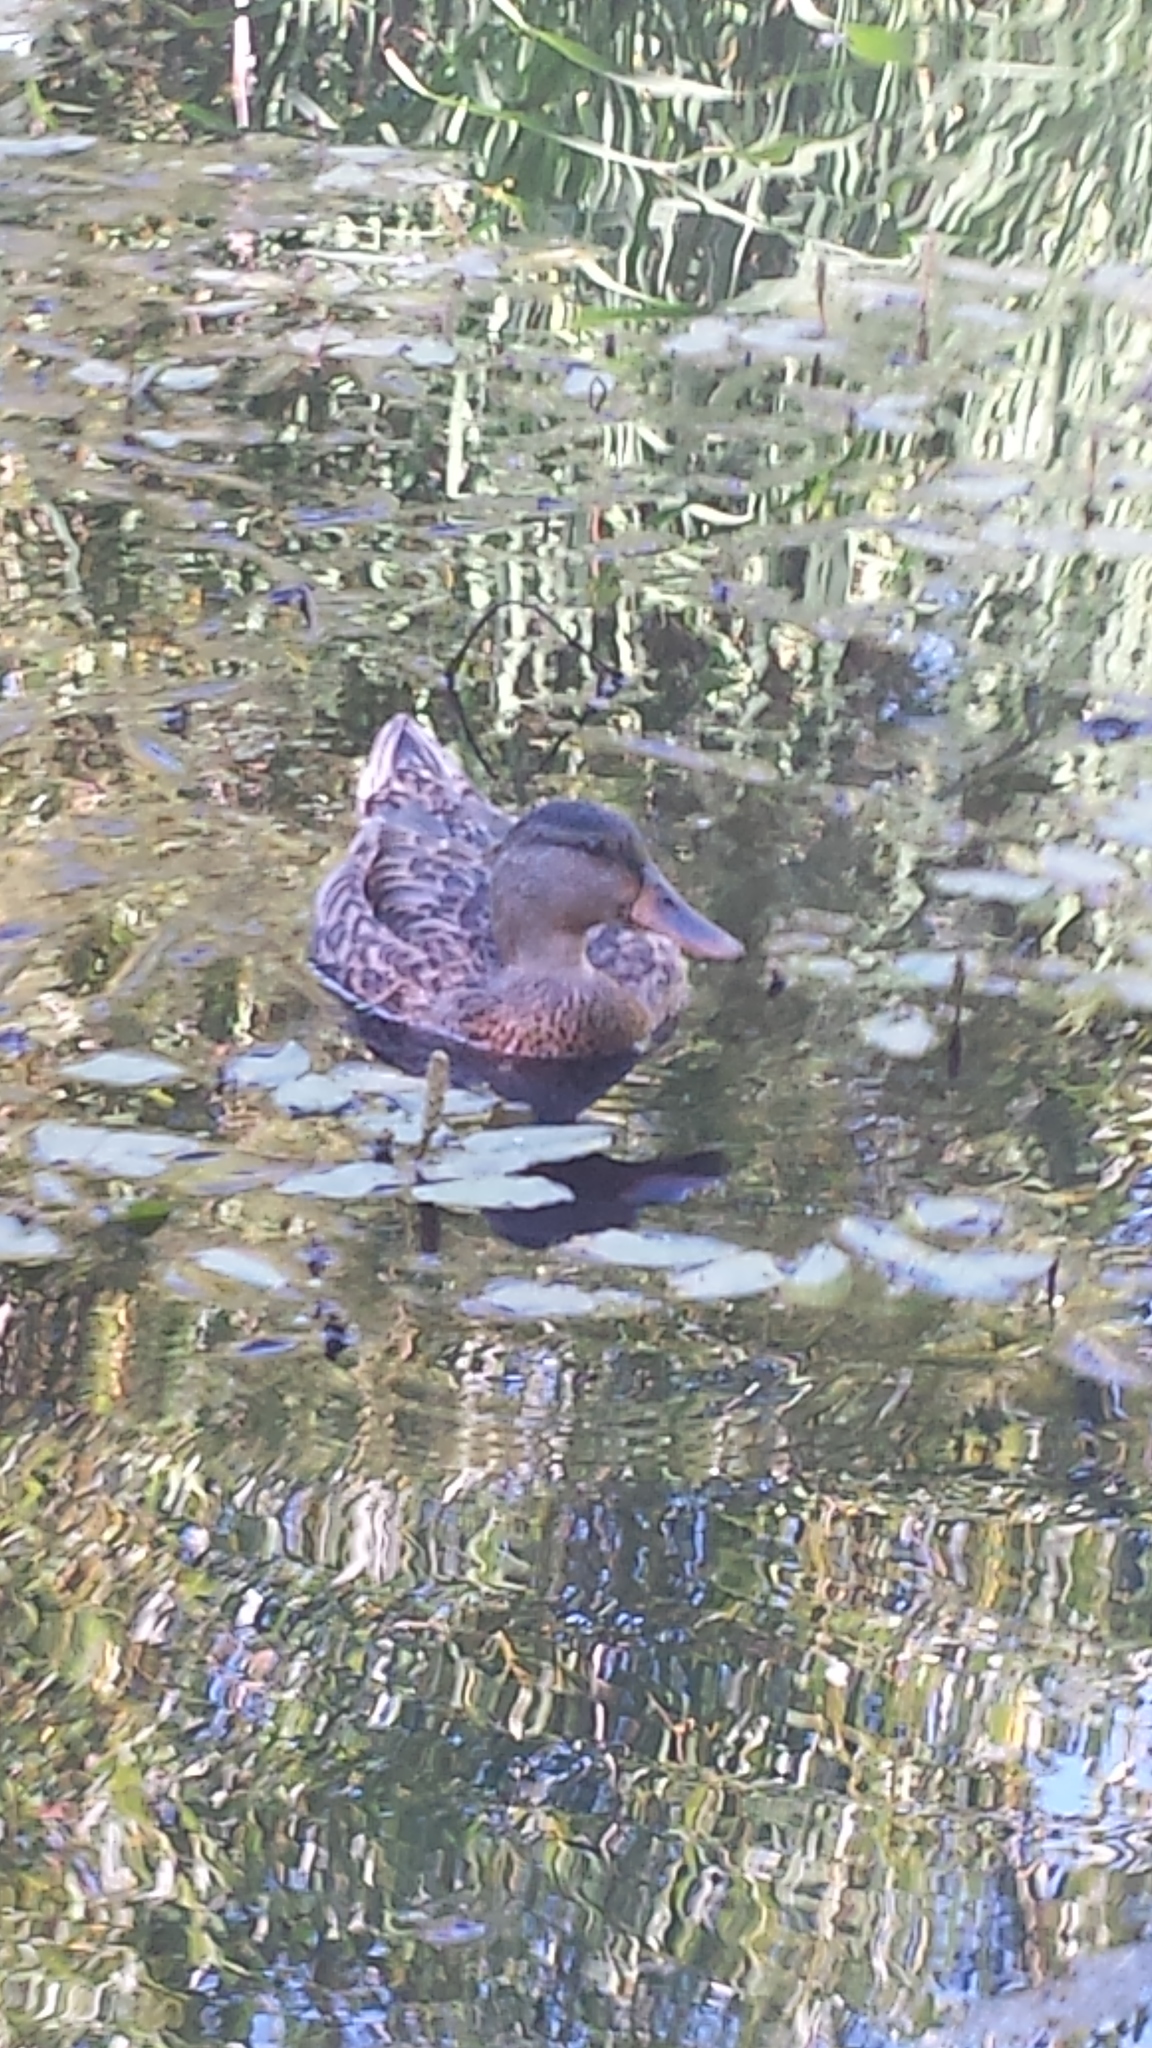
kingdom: Animalia
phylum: Chordata
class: Aves
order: Anseriformes
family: Anatidae
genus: Anas
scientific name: Anas platyrhynchos
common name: Mallard
